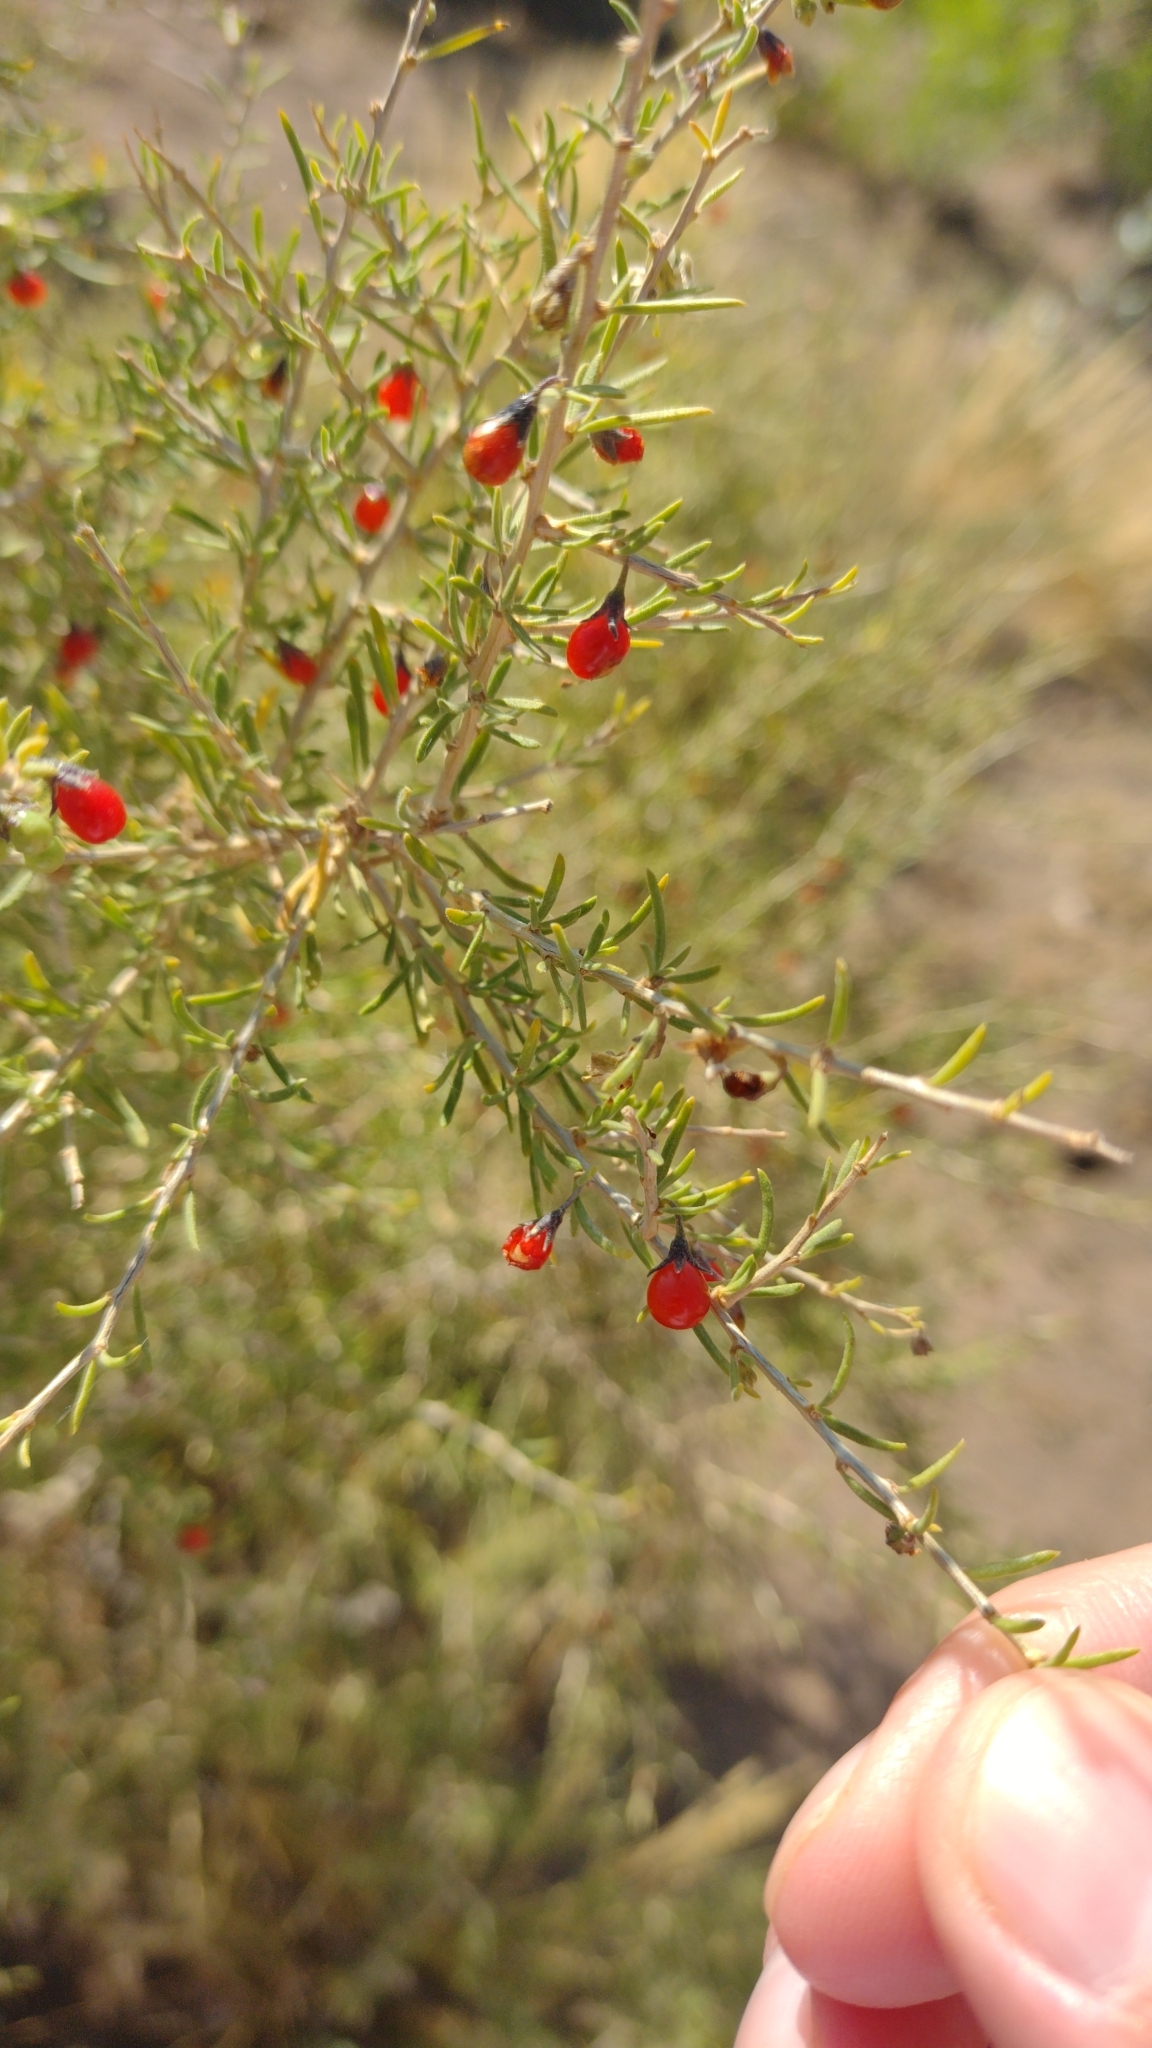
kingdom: Plantae
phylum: Tracheophyta
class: Magnoliopsida
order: Solanales
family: Solanaceae
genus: Lycium
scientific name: Lycium chilense
